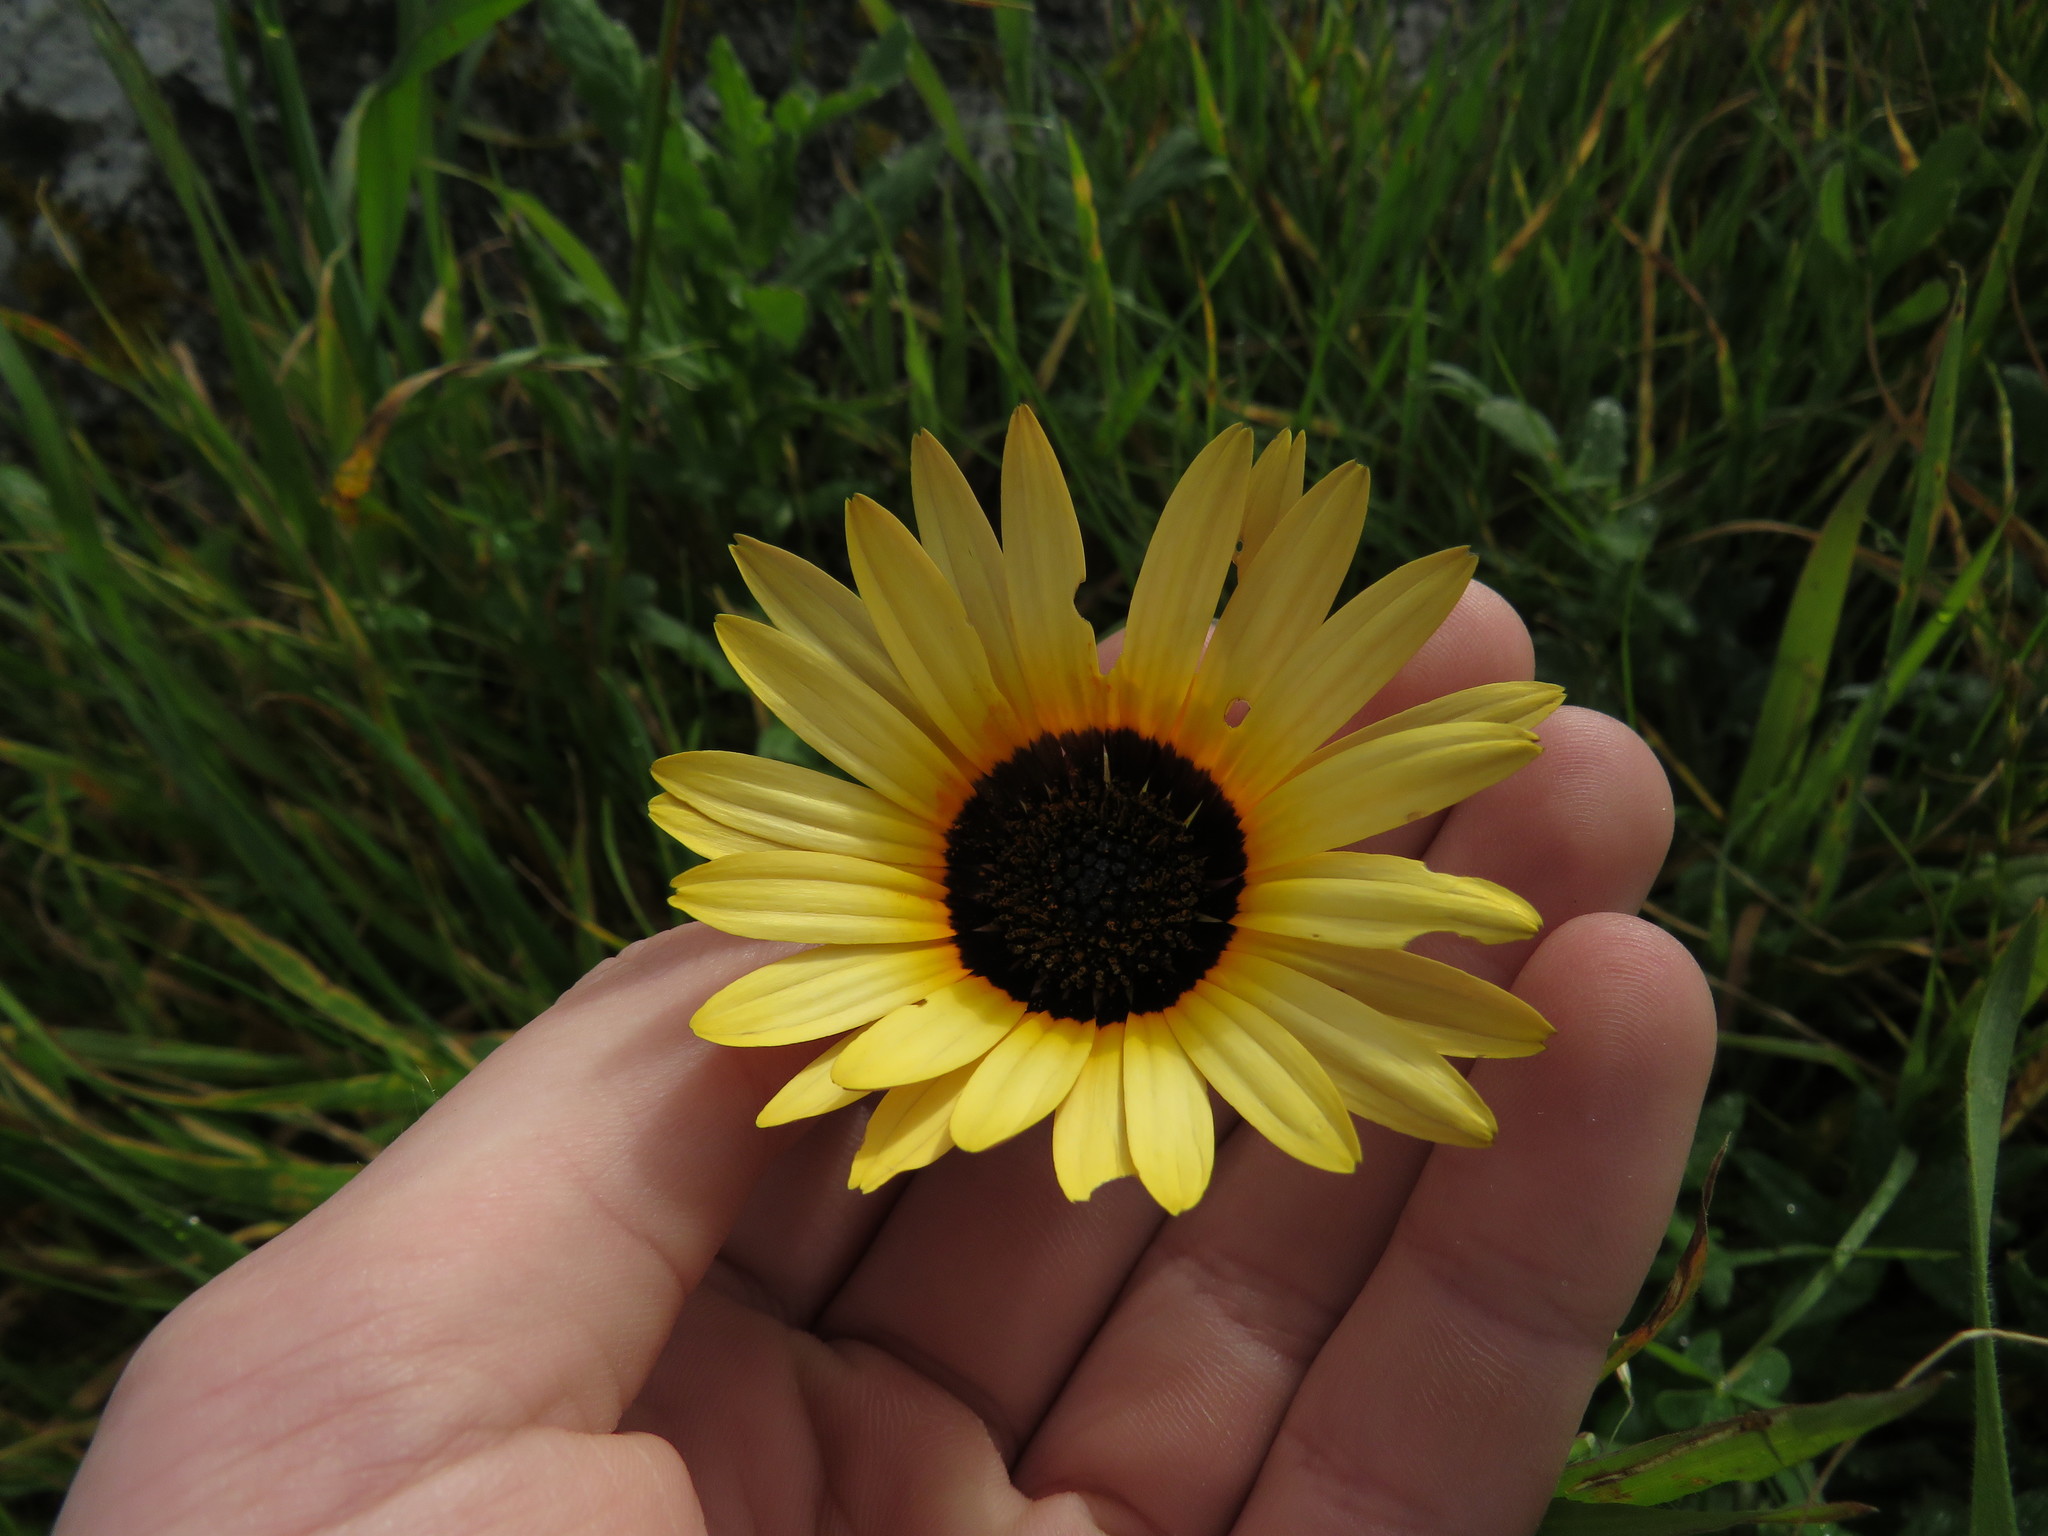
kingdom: Plantae
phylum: Tracheophyta
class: Magnoliopsida
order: Asterales
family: Asteraceae
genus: Arctotheca
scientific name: Arctotheca calendula
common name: Capeweed
